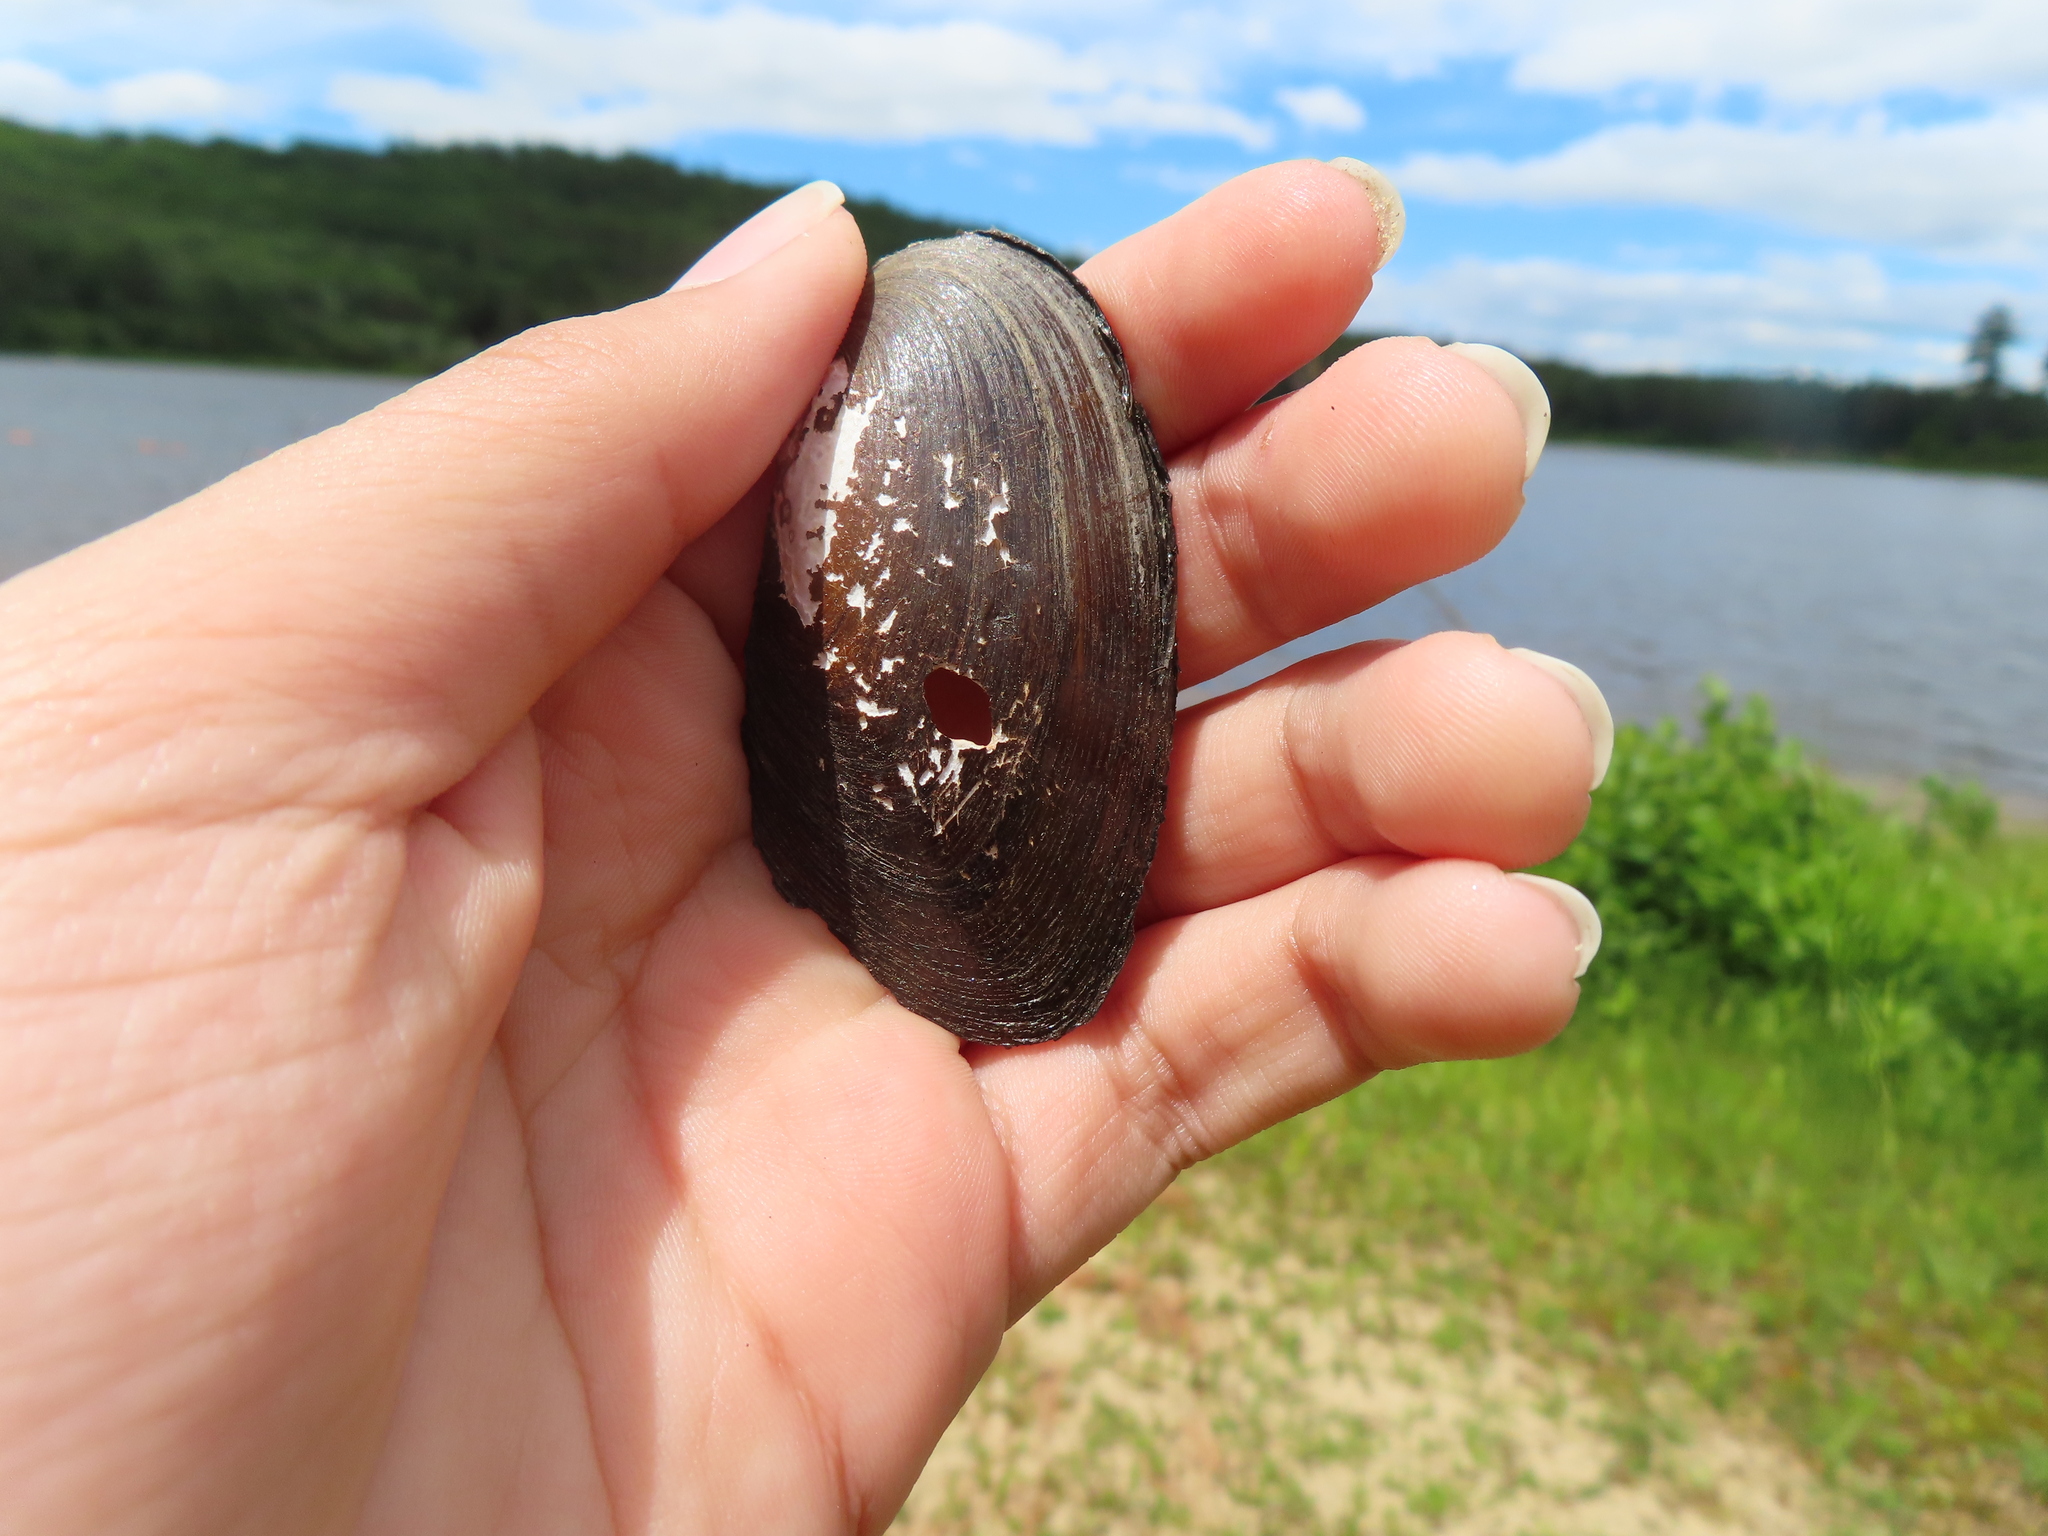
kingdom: Animalia
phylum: Mollusca
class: Bivalvia
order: Unionida
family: Unionidae
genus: Elliptio
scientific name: Elliptio complanata
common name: Eastern elliptio
